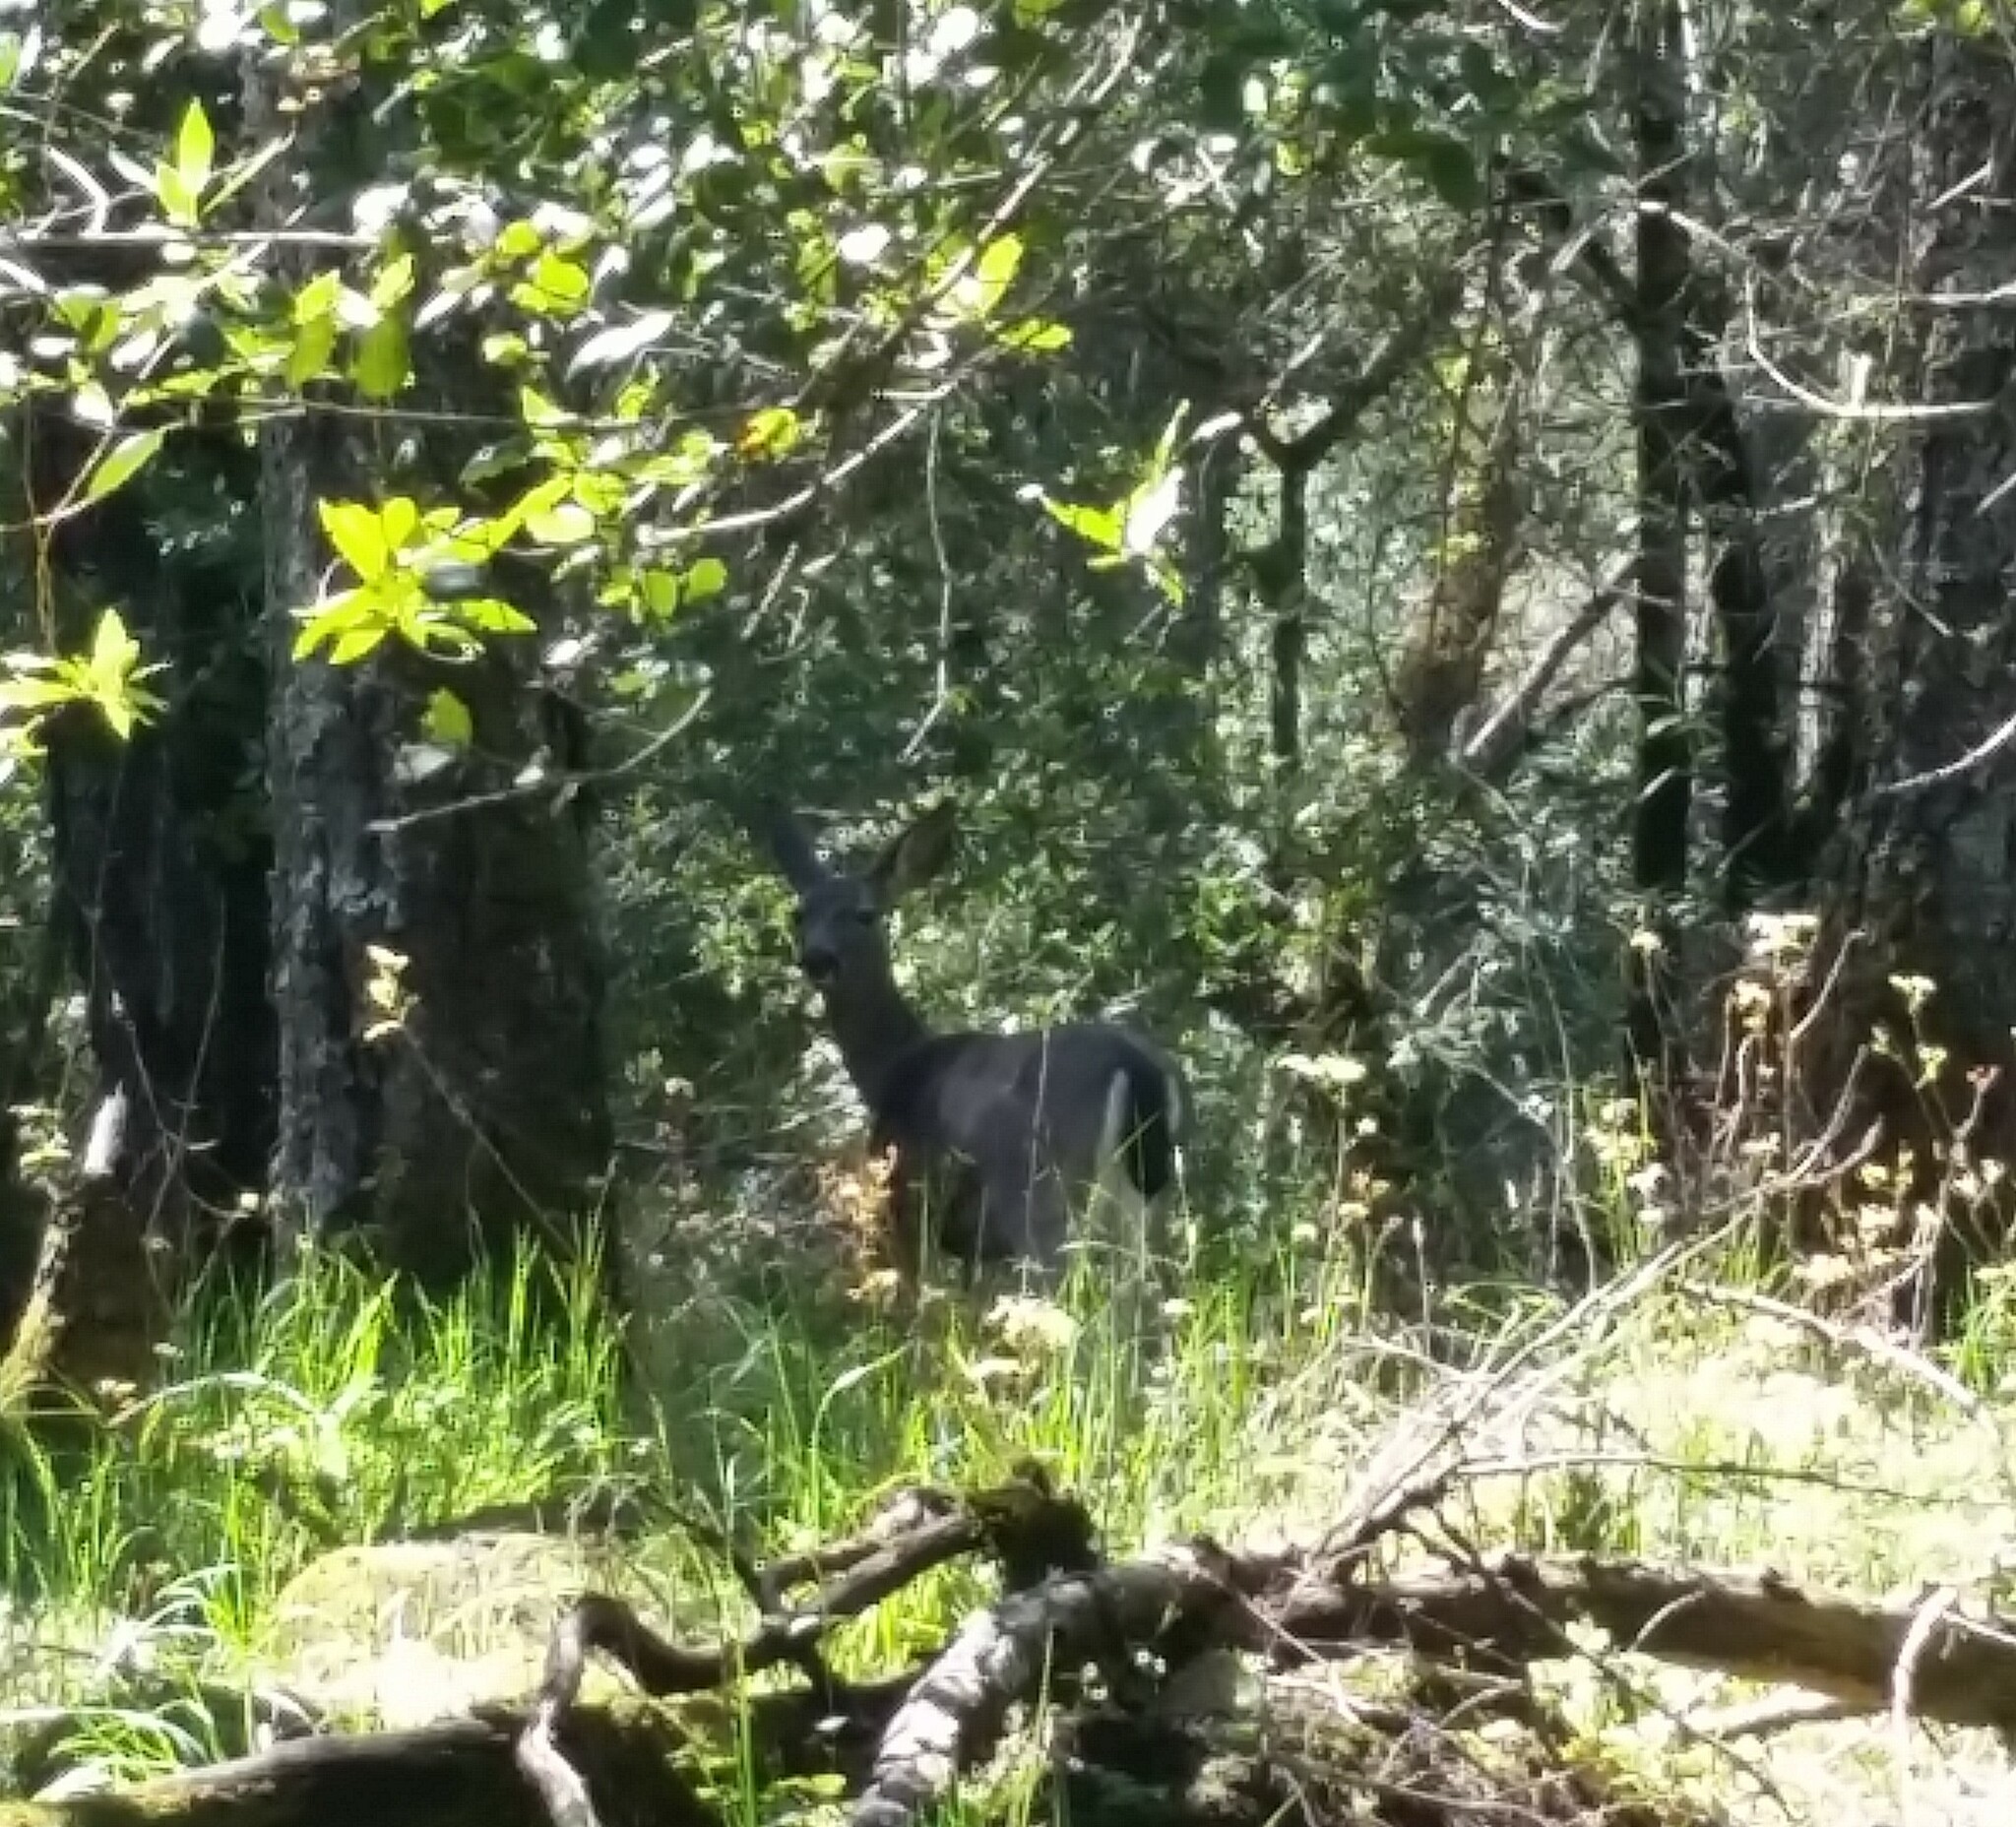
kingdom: Animalia
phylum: Chordata
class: Mammalia
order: Artiodactyla
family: Cervidae
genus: Odocoileus
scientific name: Odocoileus hemionus
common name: Mule deer
